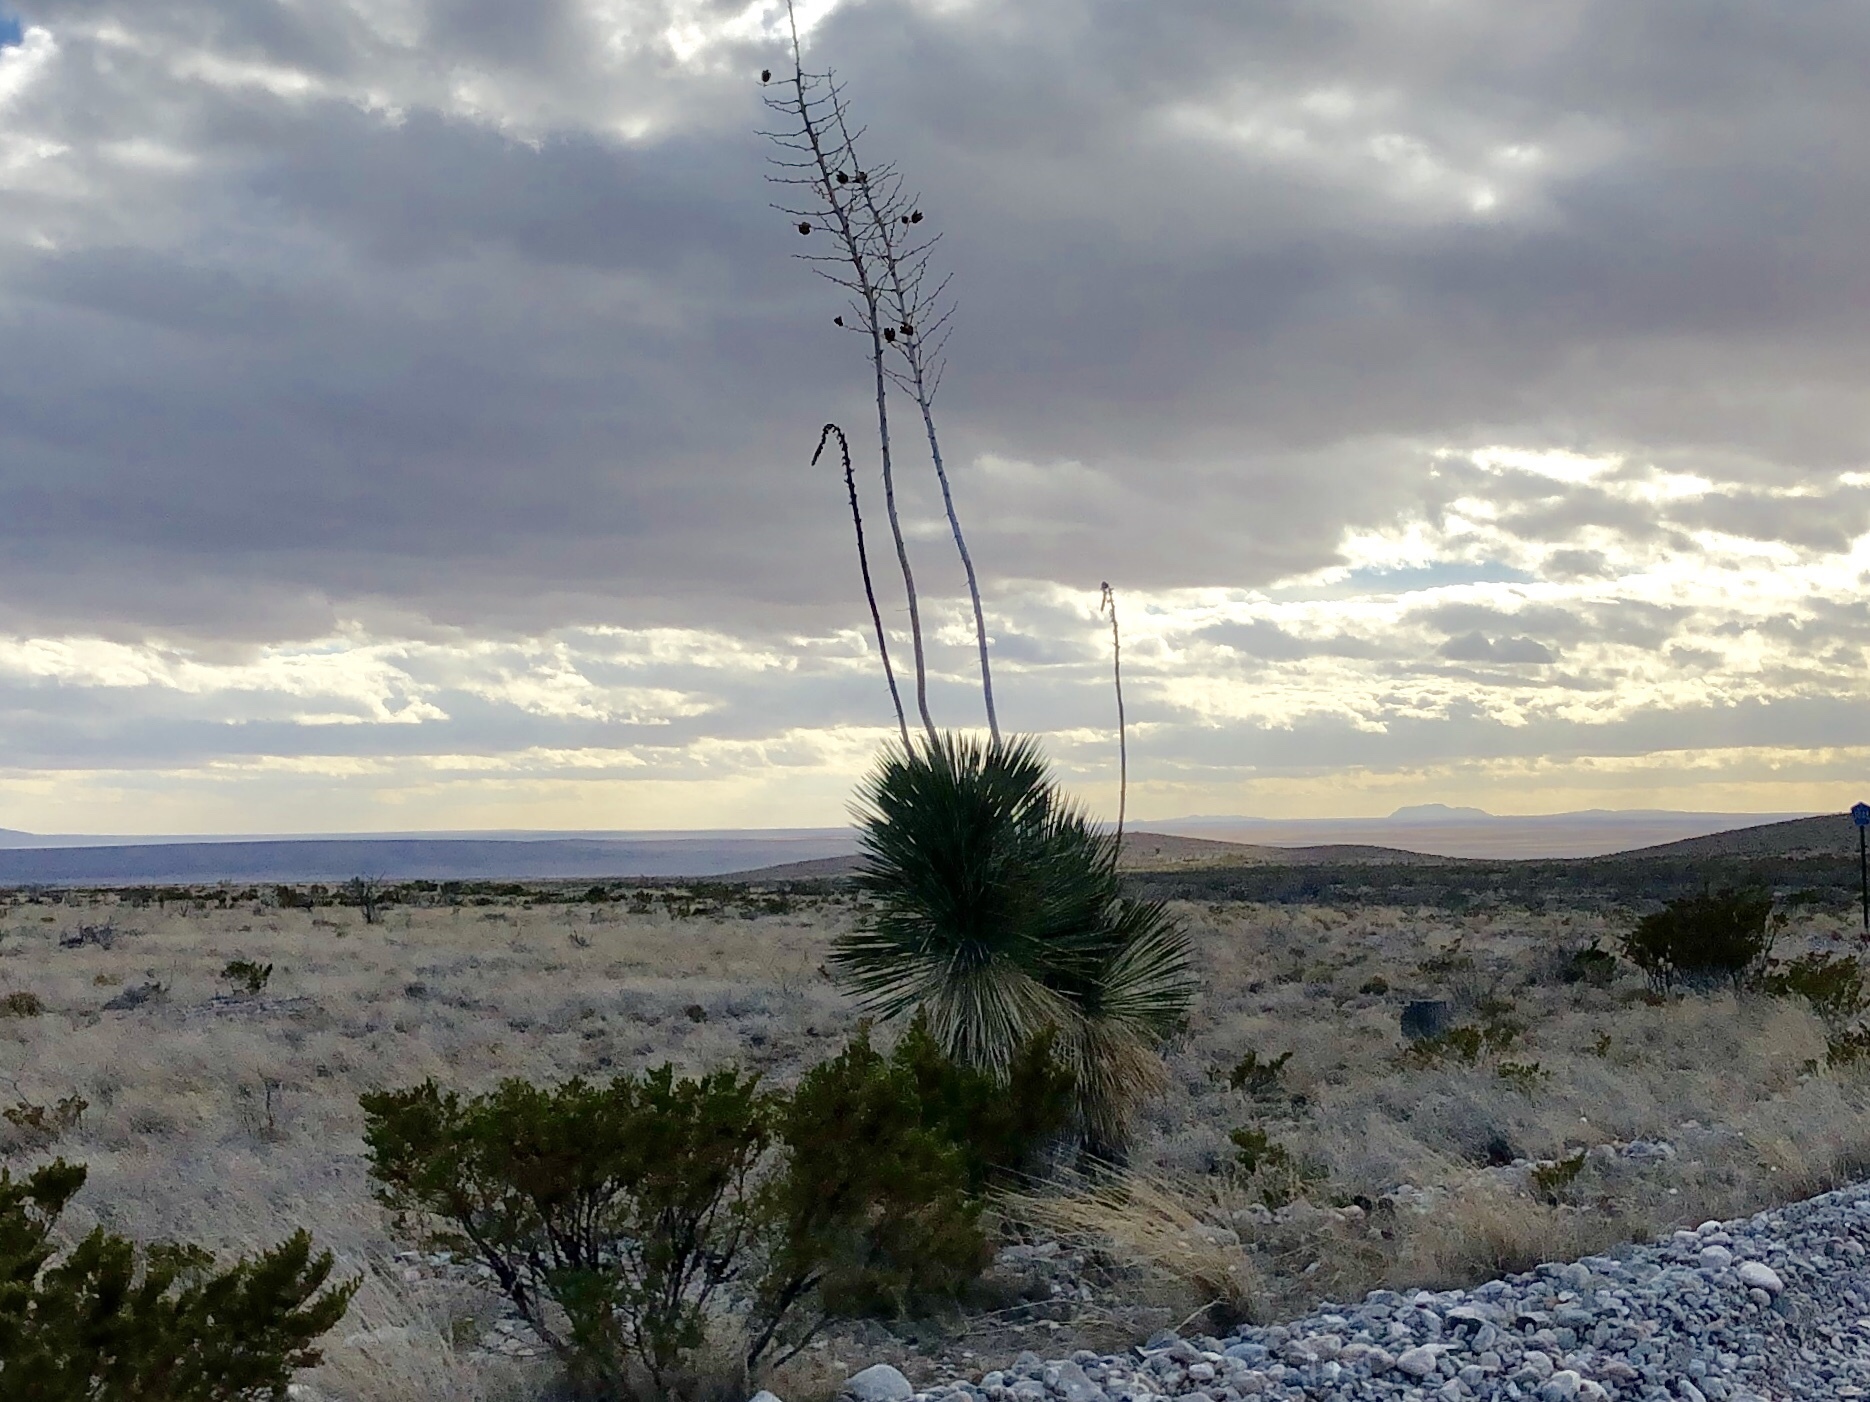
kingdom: Plantae
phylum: Tracheophyta
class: Liliopsida
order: Asparagales
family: Asparagaceae
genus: Yucca
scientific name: Yucca elata
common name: Palmella
